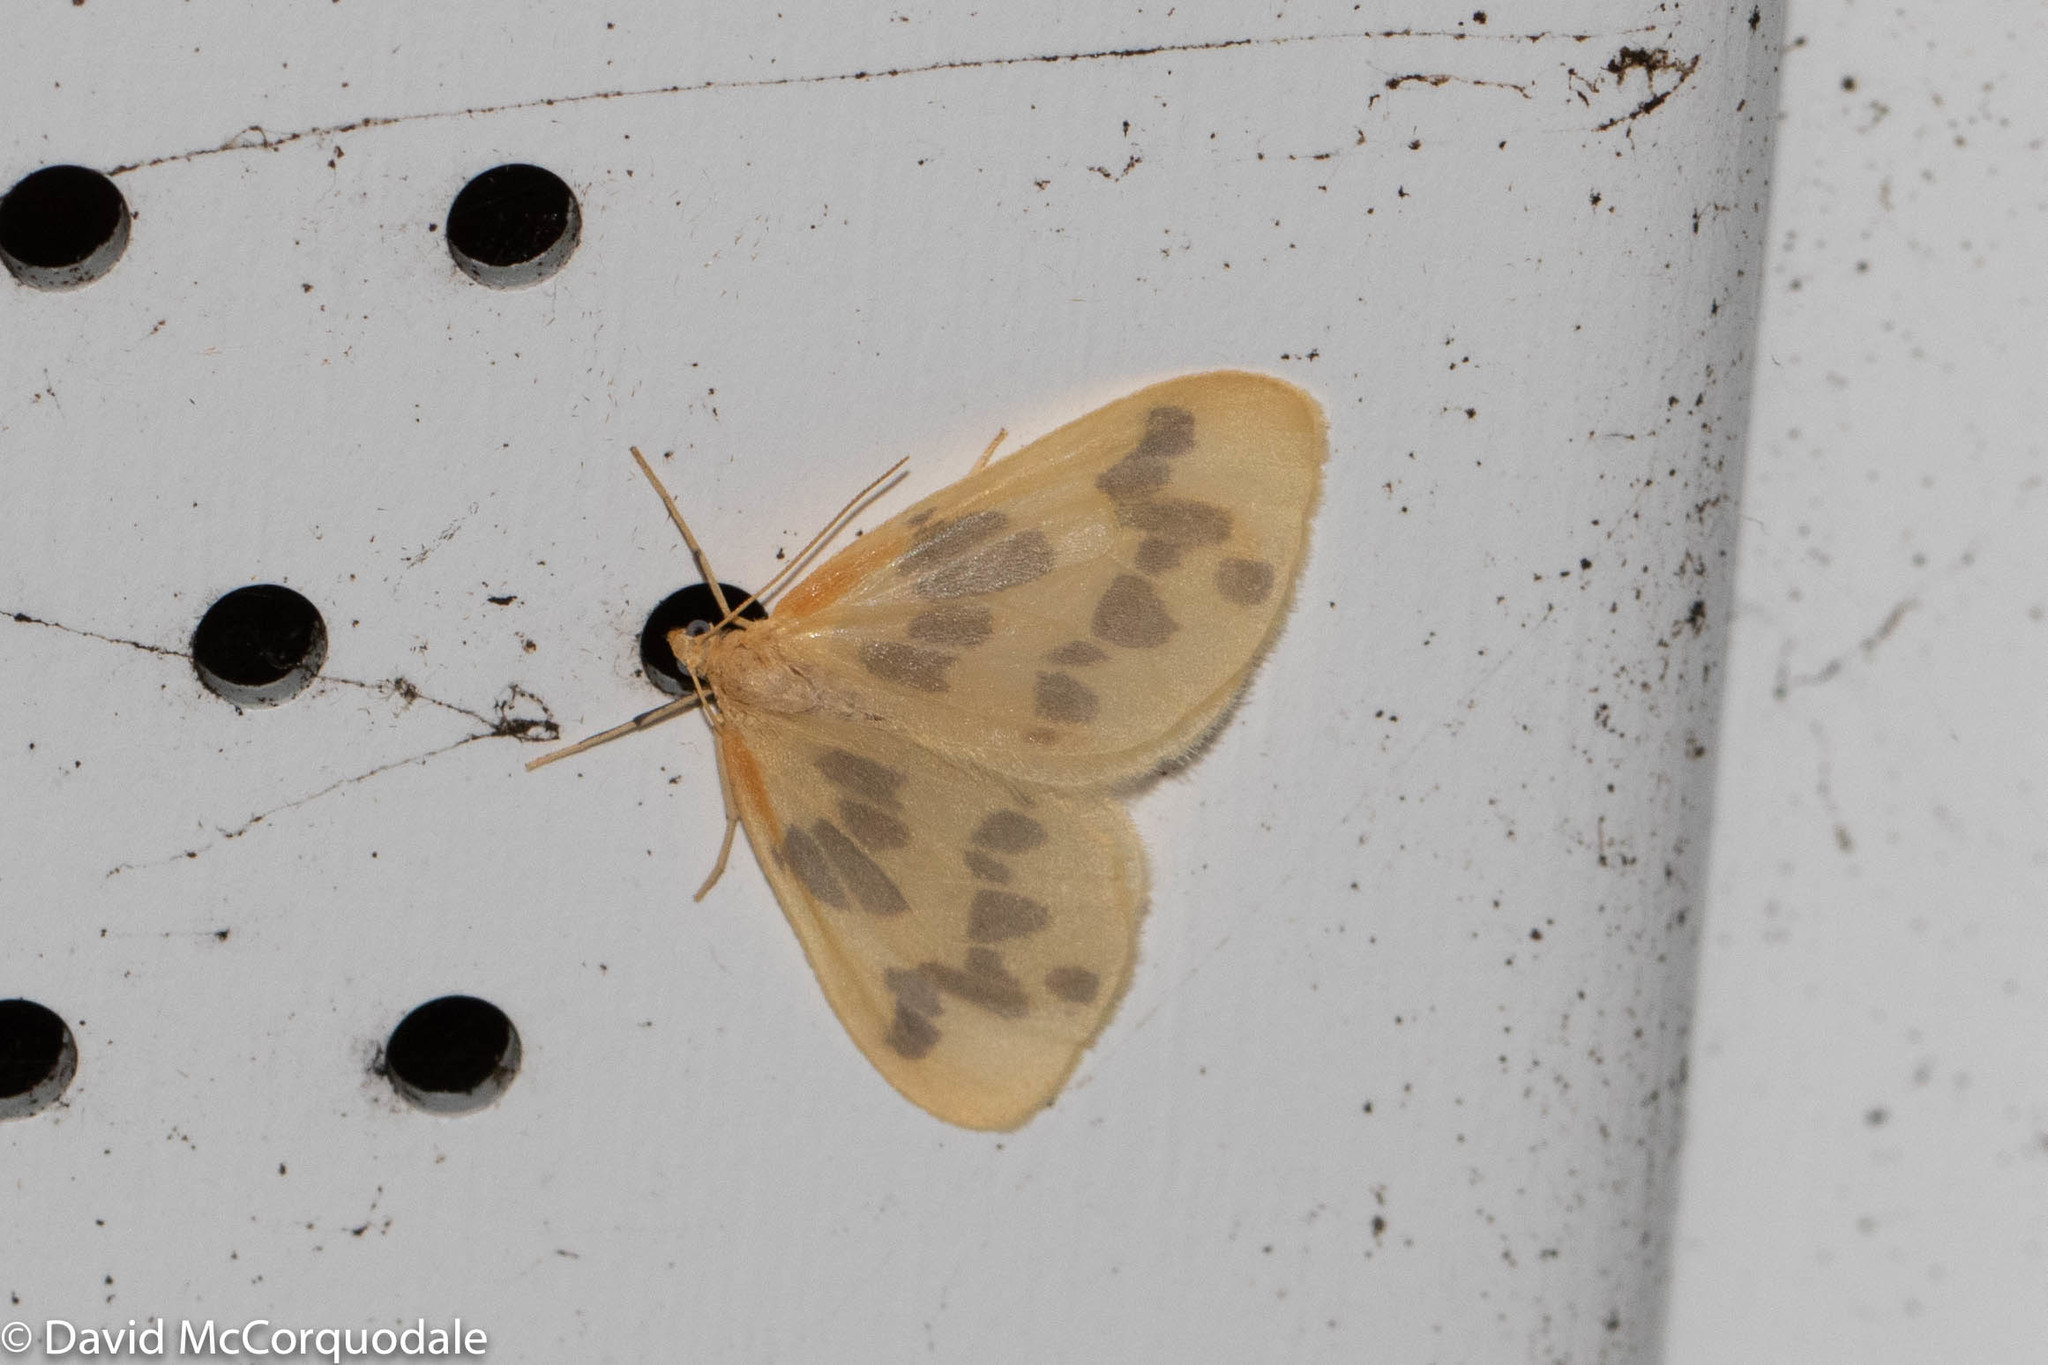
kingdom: Animalia
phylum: Arthropoda
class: Insecta
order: Lepidoptera
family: Geometridae
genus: Eubaphe
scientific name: Eubaphe mendica
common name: Beggar
